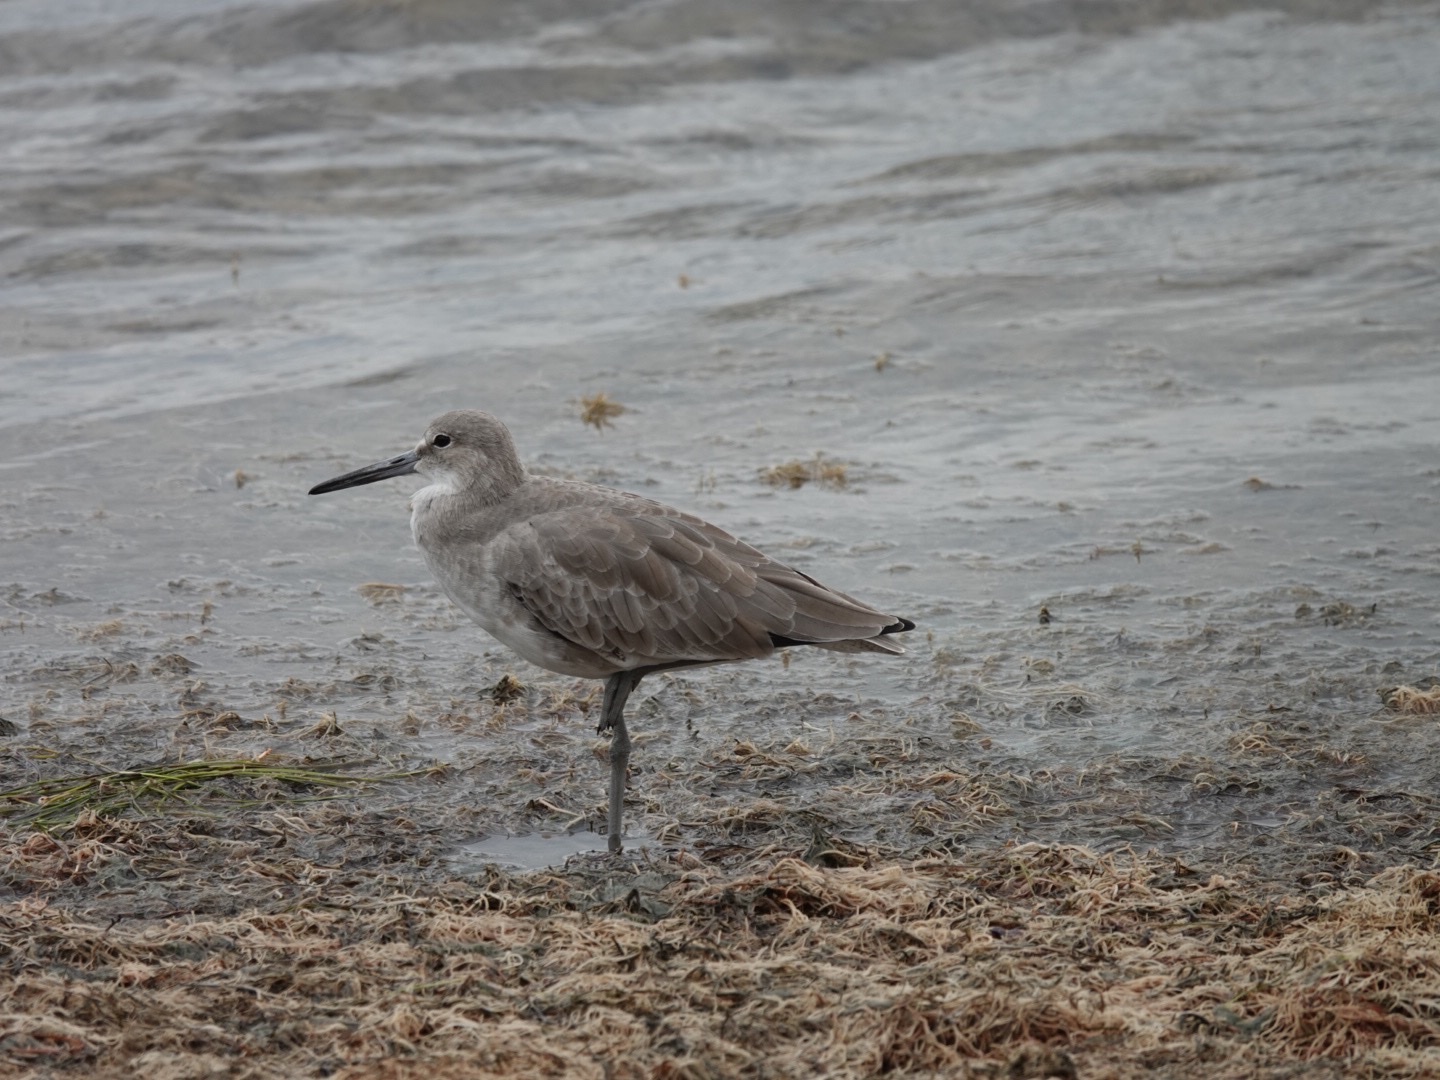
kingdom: Animalia
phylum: Chordata
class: Aves
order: Charadriiformes
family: Scolopacidae
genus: Tringa
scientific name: Tringa semipalmata
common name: Willet
